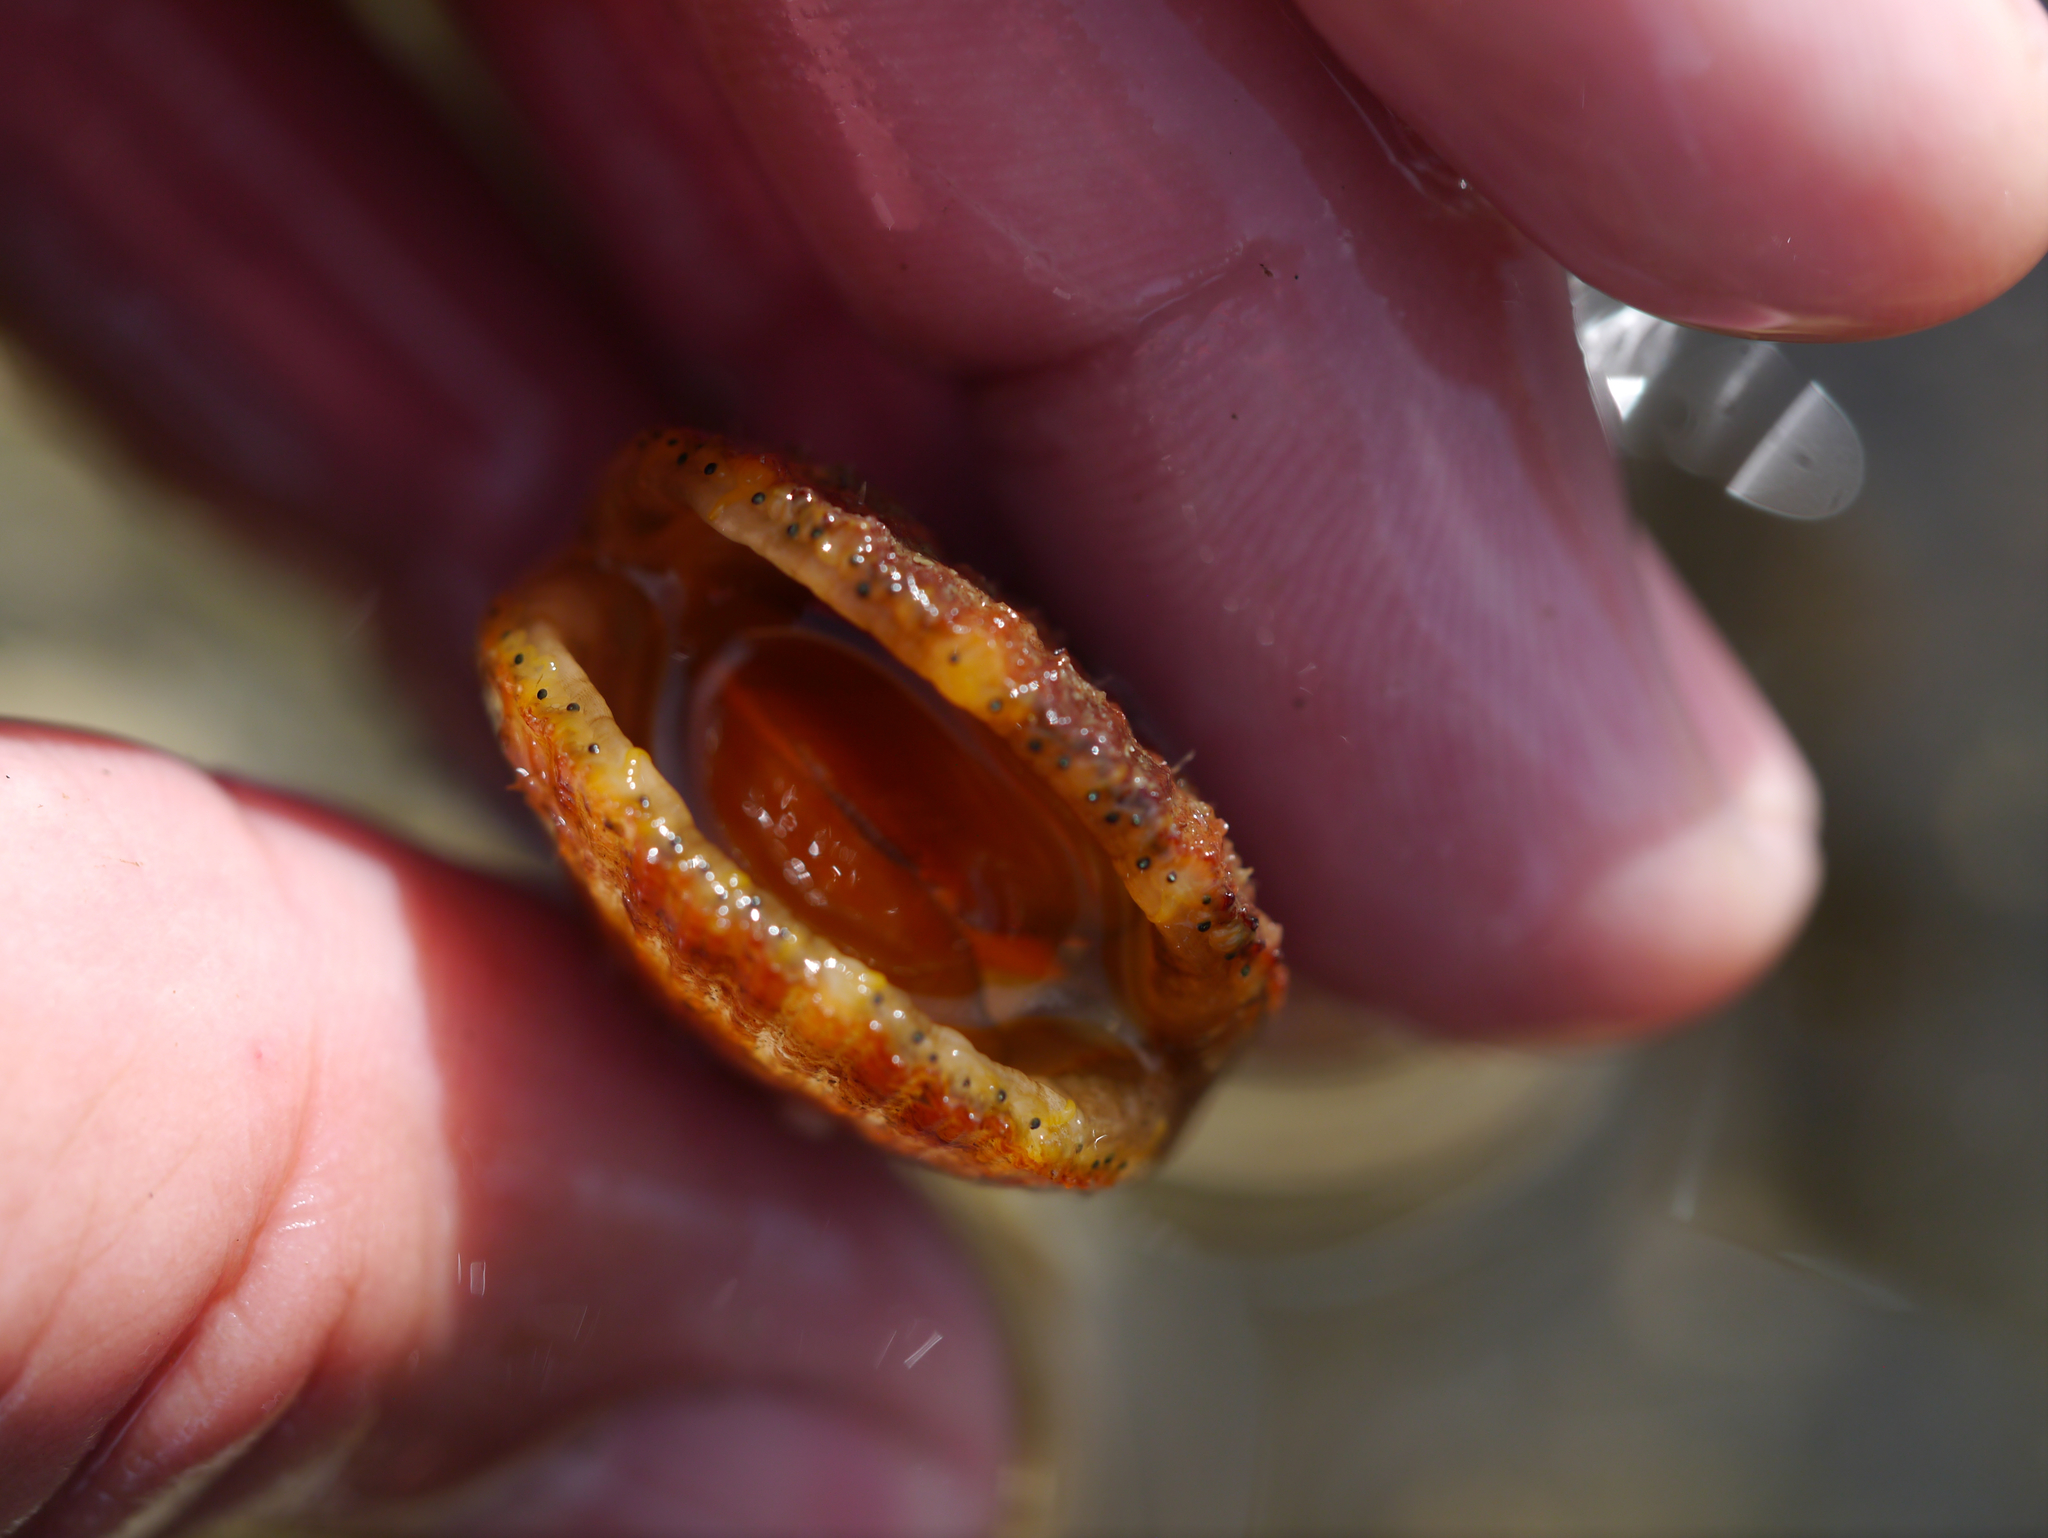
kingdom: Animalia
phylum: Mollusca
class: Bivalvia
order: Pectinida
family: Pectinidae
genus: Chlamys
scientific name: Chlamys hastata
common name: Spear scallop
